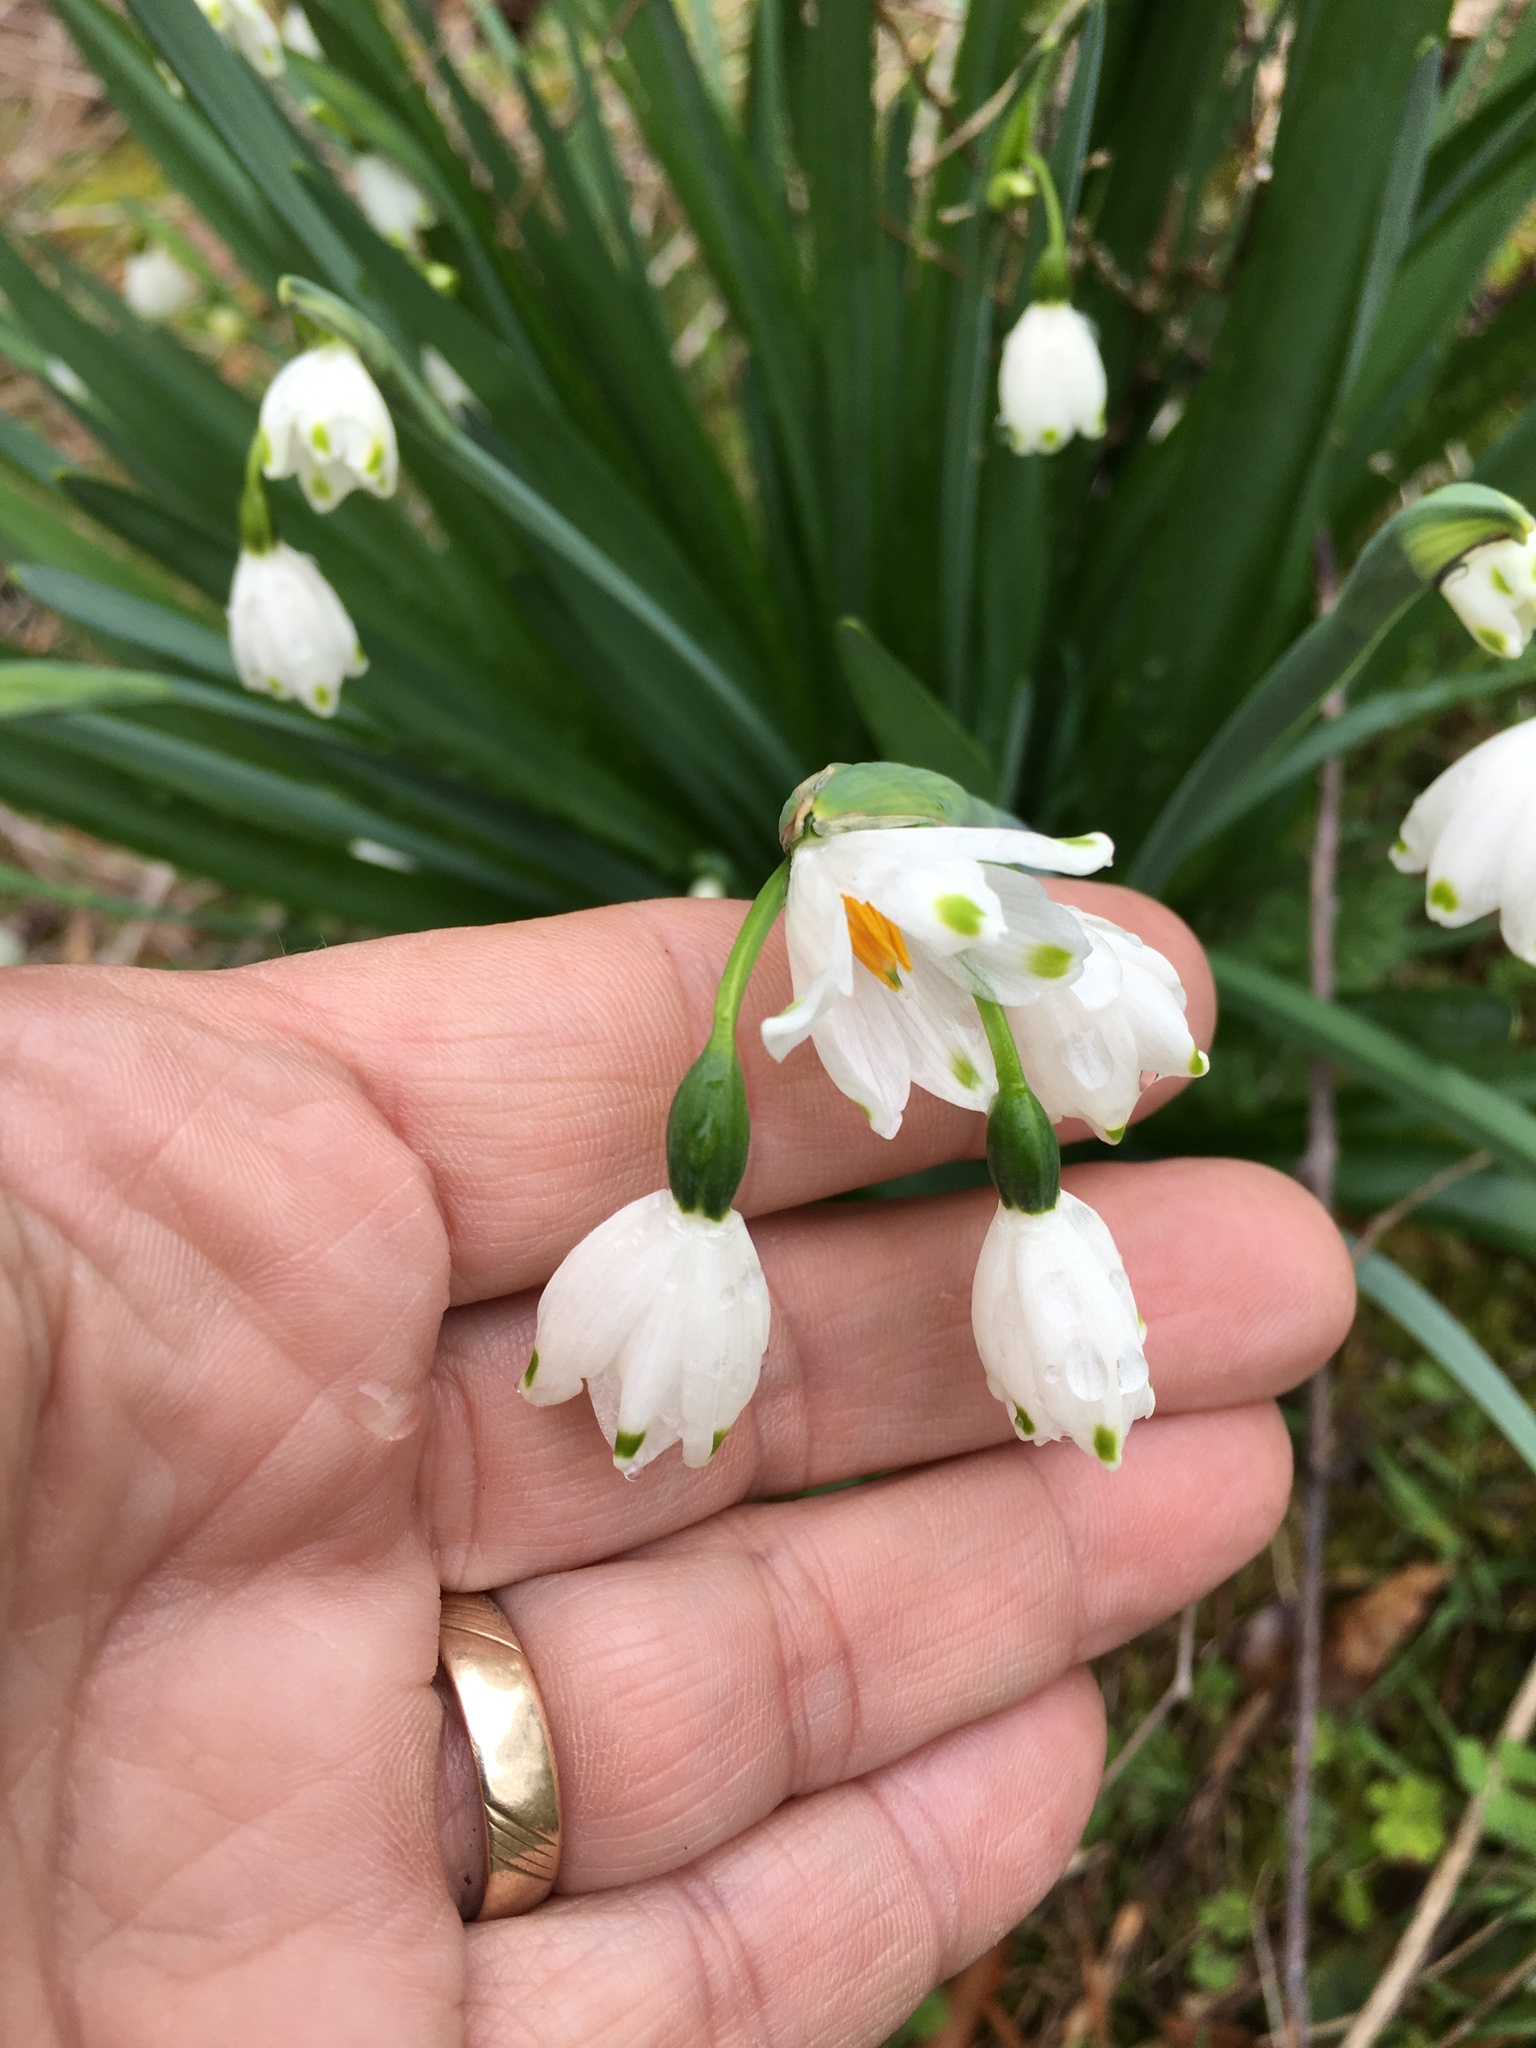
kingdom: Plantae
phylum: Tracheophyta
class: Liliopsida
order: Asparagales
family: Amaryllidaceae
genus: Leucojum
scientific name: Leucojum aestivum
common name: Summer snowflake
